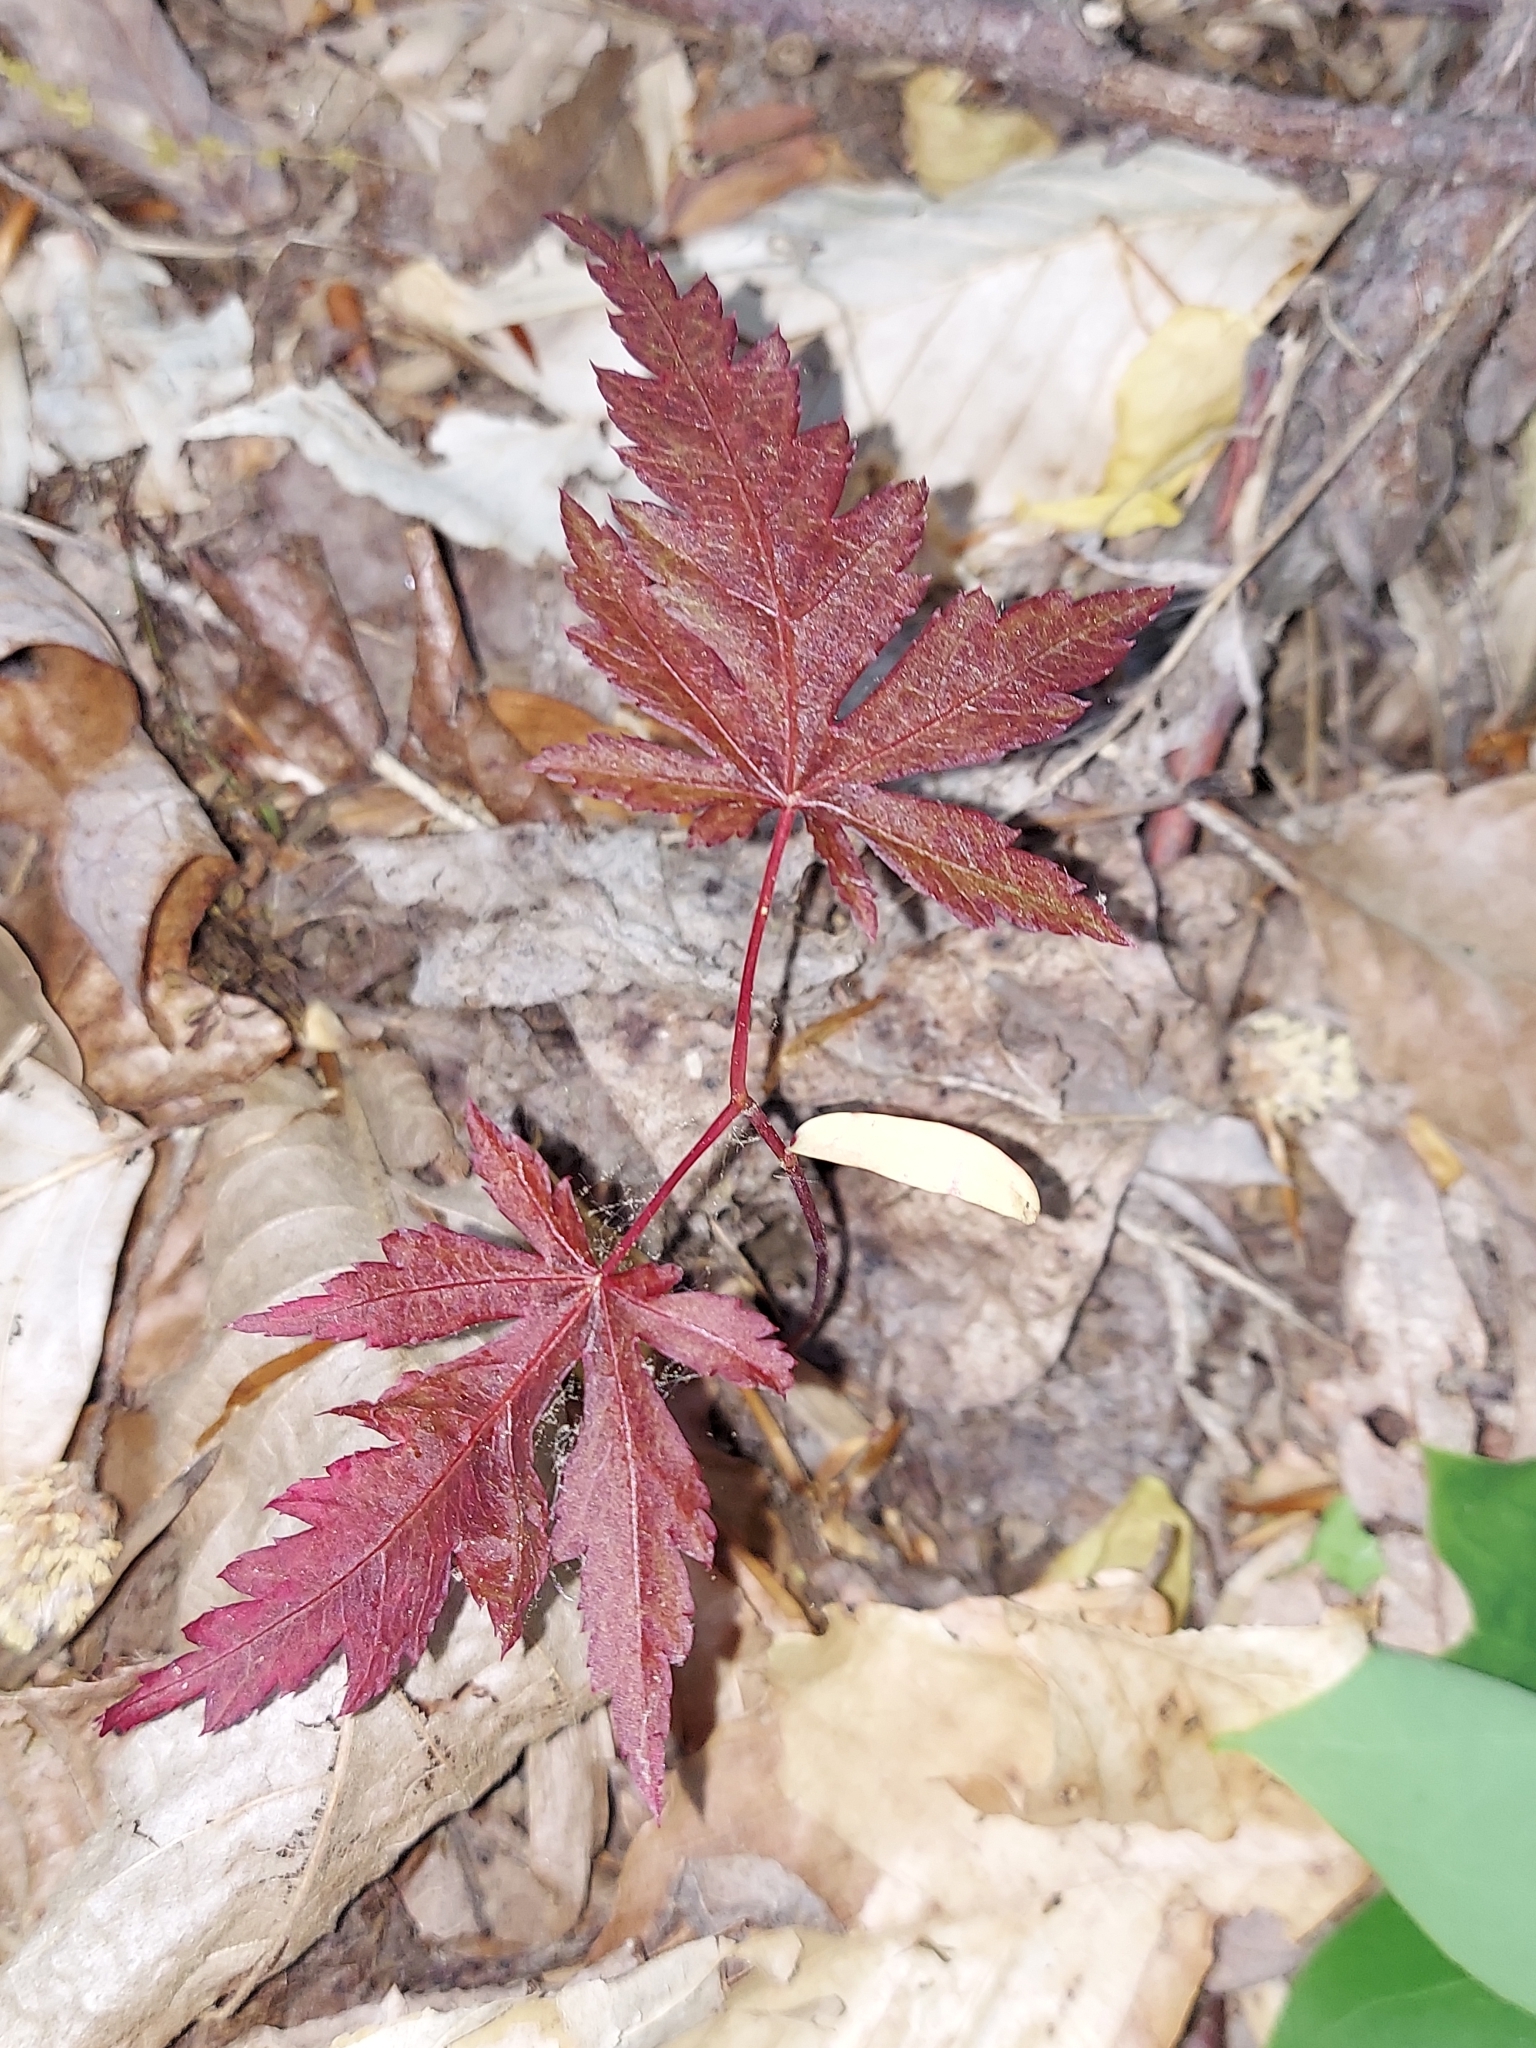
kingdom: Plantae
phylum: Tracheophyta
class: Magnoliopsida
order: Sapindales
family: Sapindaceae
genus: Acer
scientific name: Acer palmatum
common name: Japanese maple
